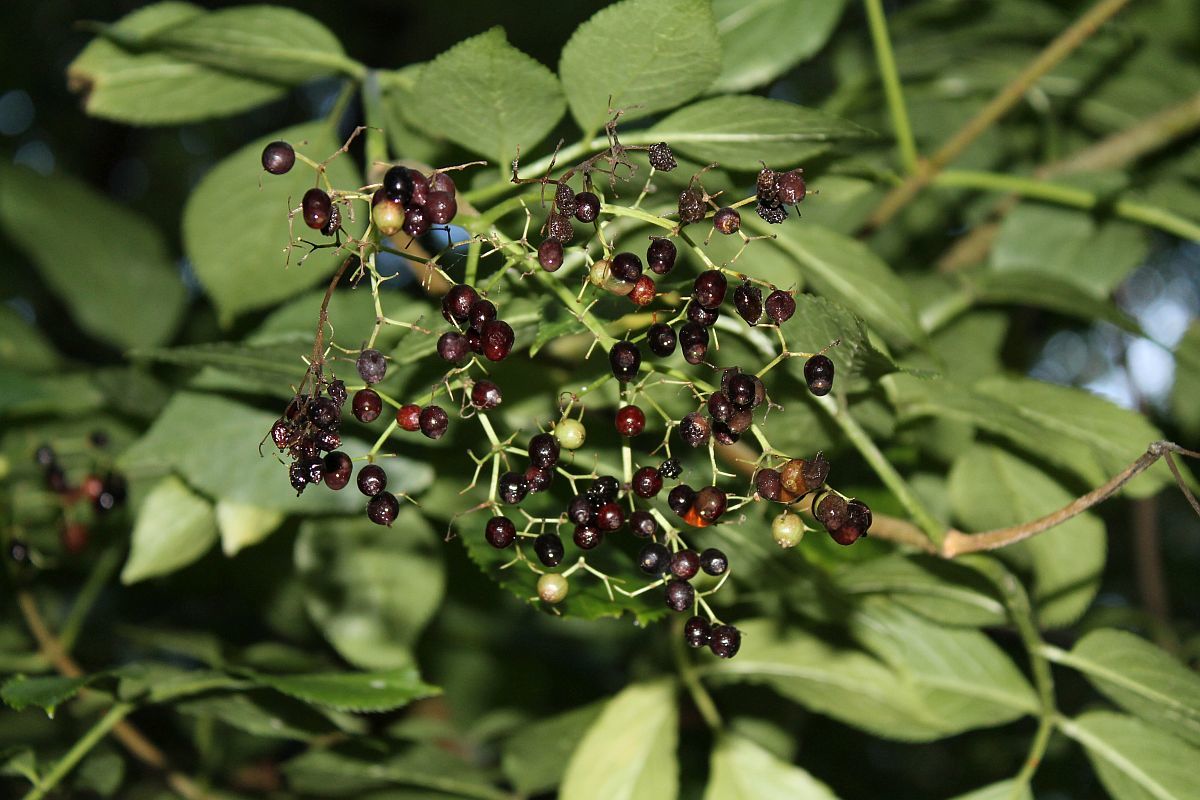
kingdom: Plantae
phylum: Tracheophyta
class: Magnoliopsida
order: Dipsacales
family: Viburnaceae
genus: Sambucus
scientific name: Sambucus nigra
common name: Elder
